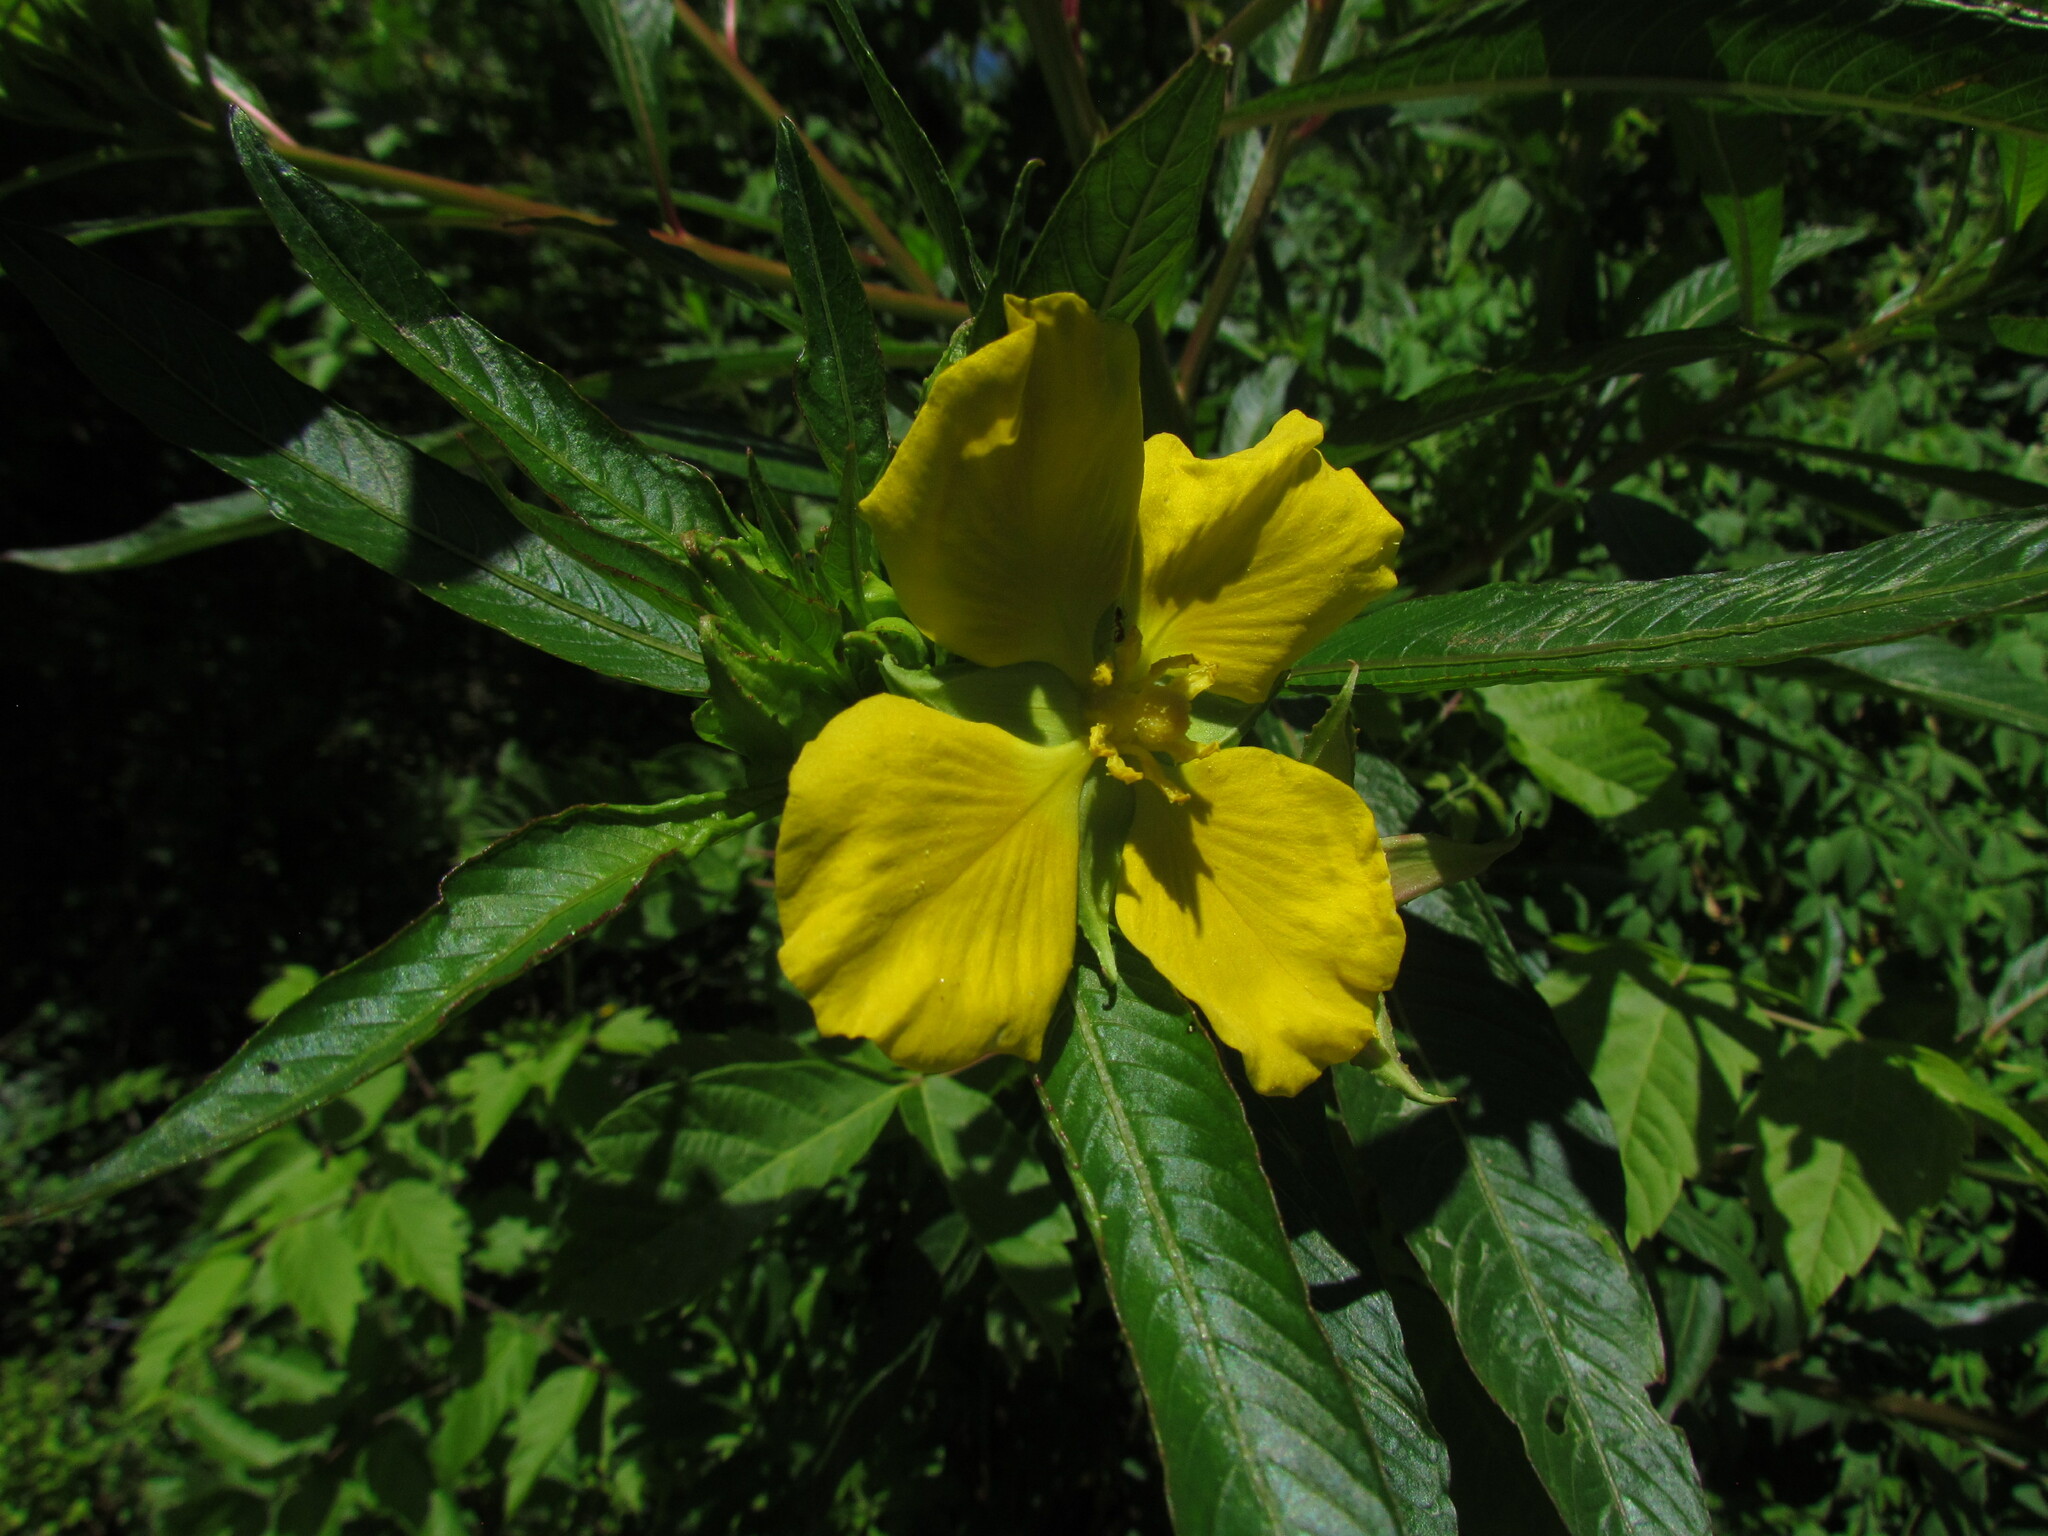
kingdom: Plantae
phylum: Tracheophyta
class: Magnoliopsida
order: Myrtales
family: Onagraceae
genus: Ludwigia
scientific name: Ludwigia elegans
